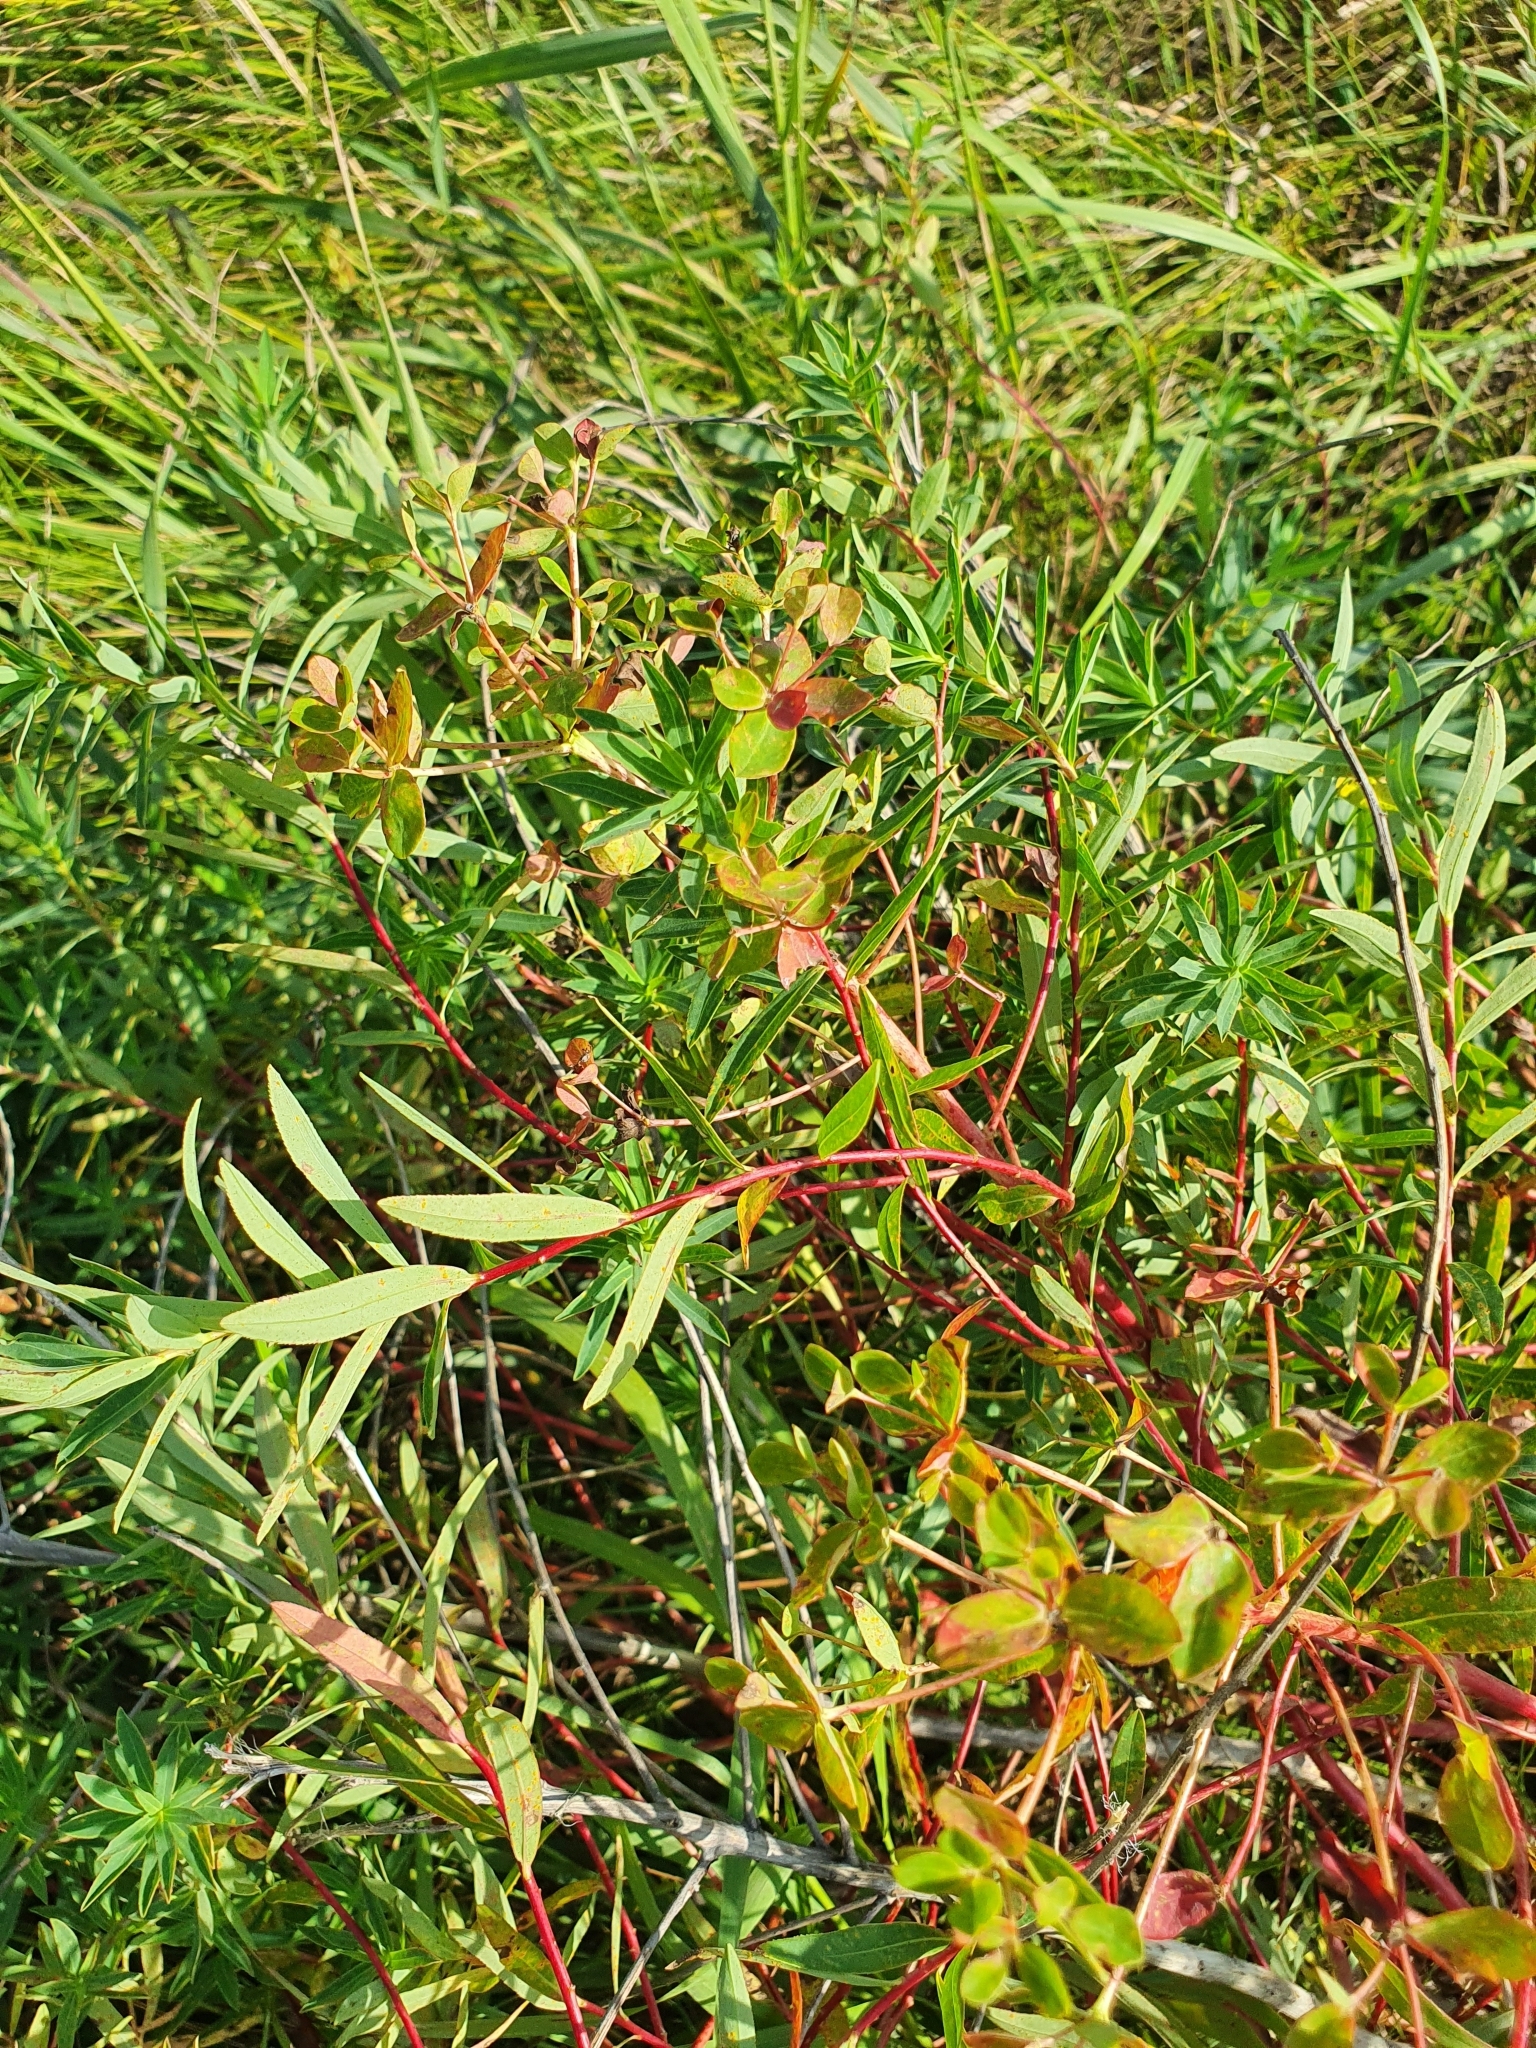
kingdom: Plantae
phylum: Tracheophyta
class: Magnoliopsida
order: Malpighiales
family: Euphorbiaceae
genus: Euphorbia
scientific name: Euphorbia palustris
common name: Marsh spurge
